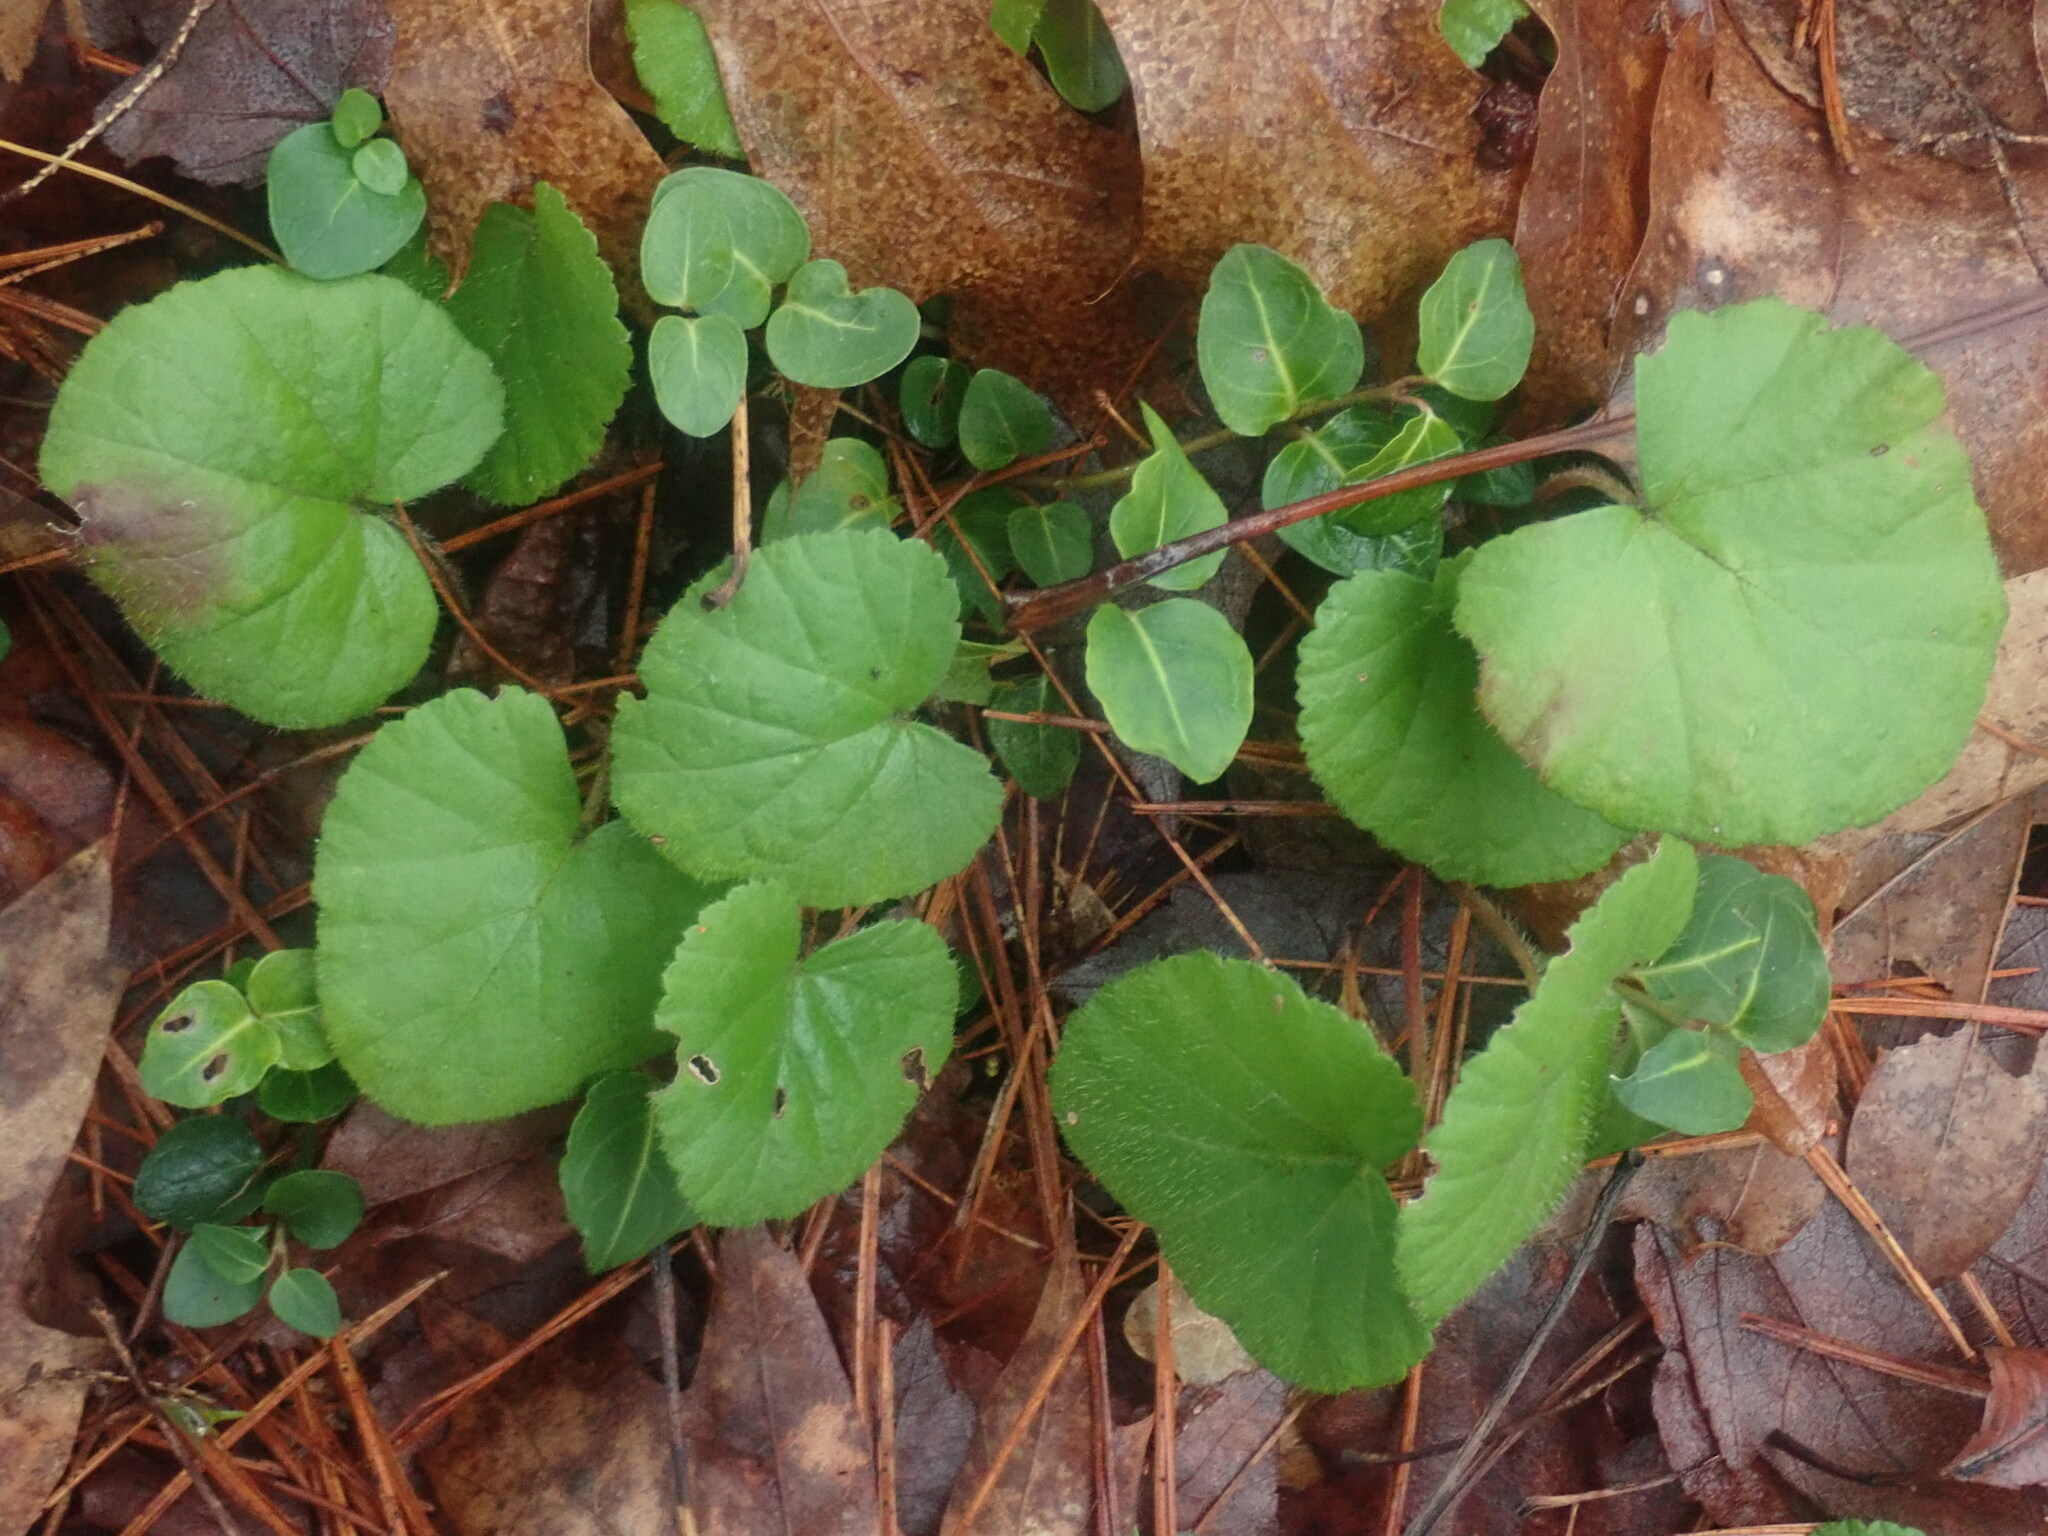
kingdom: Plantae
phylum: Tracheophyta
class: Magnoliopsida
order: Rosales
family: Rosaceae
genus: Dalibarda
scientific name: Dalibarda repens
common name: Dewdrop
